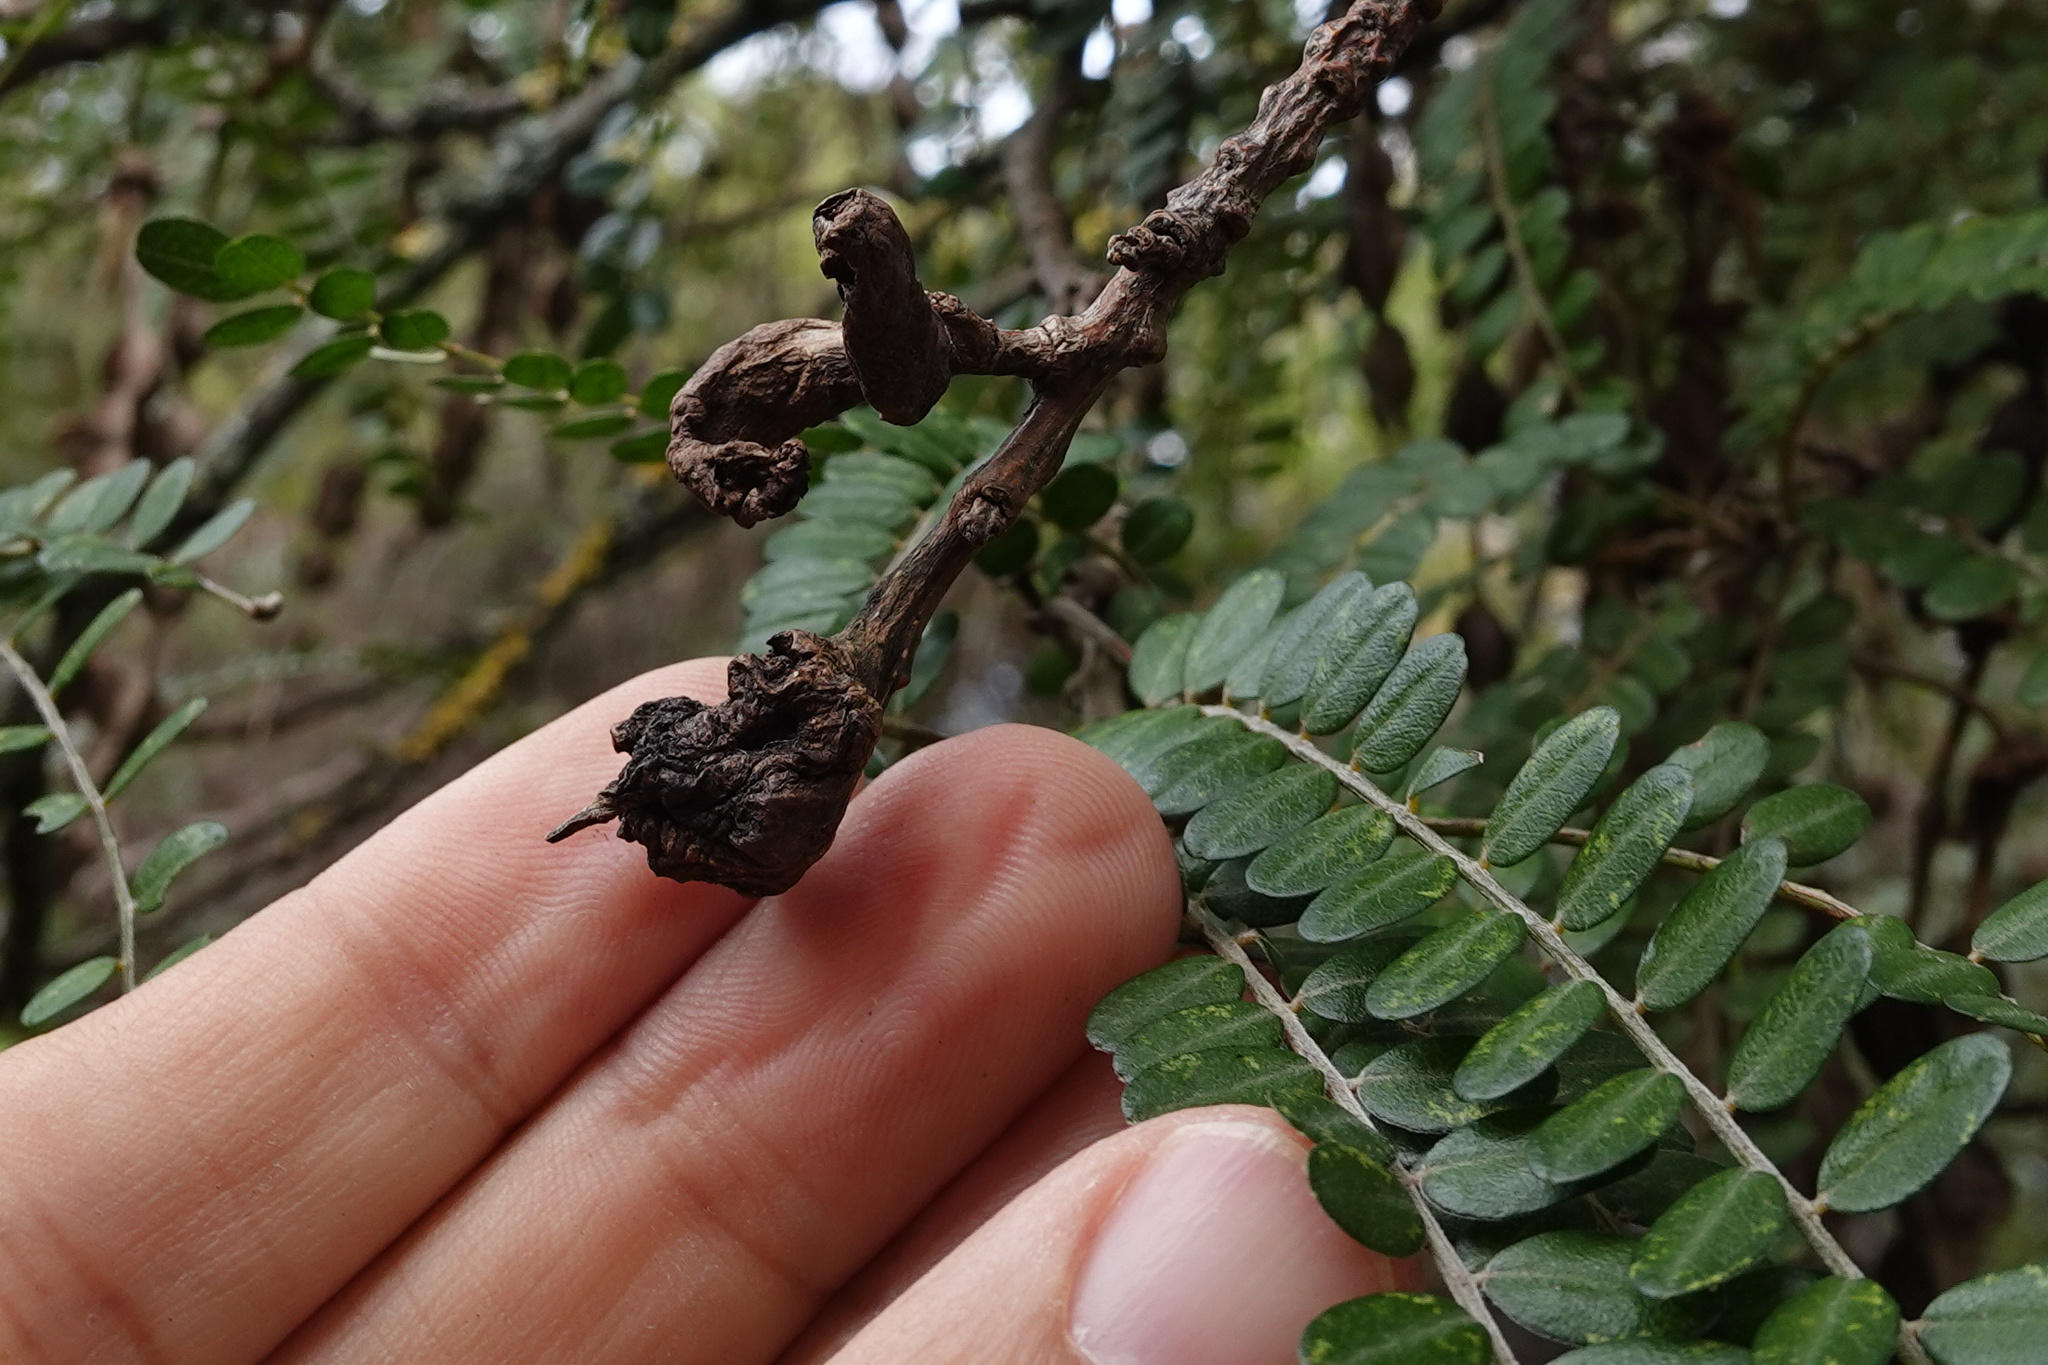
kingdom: Fungi
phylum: Basidiomycota
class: Pucciniomycetes
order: Pucciniales
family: Pucciniaceae
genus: Uromyces
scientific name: Uromyces edwardsiae
